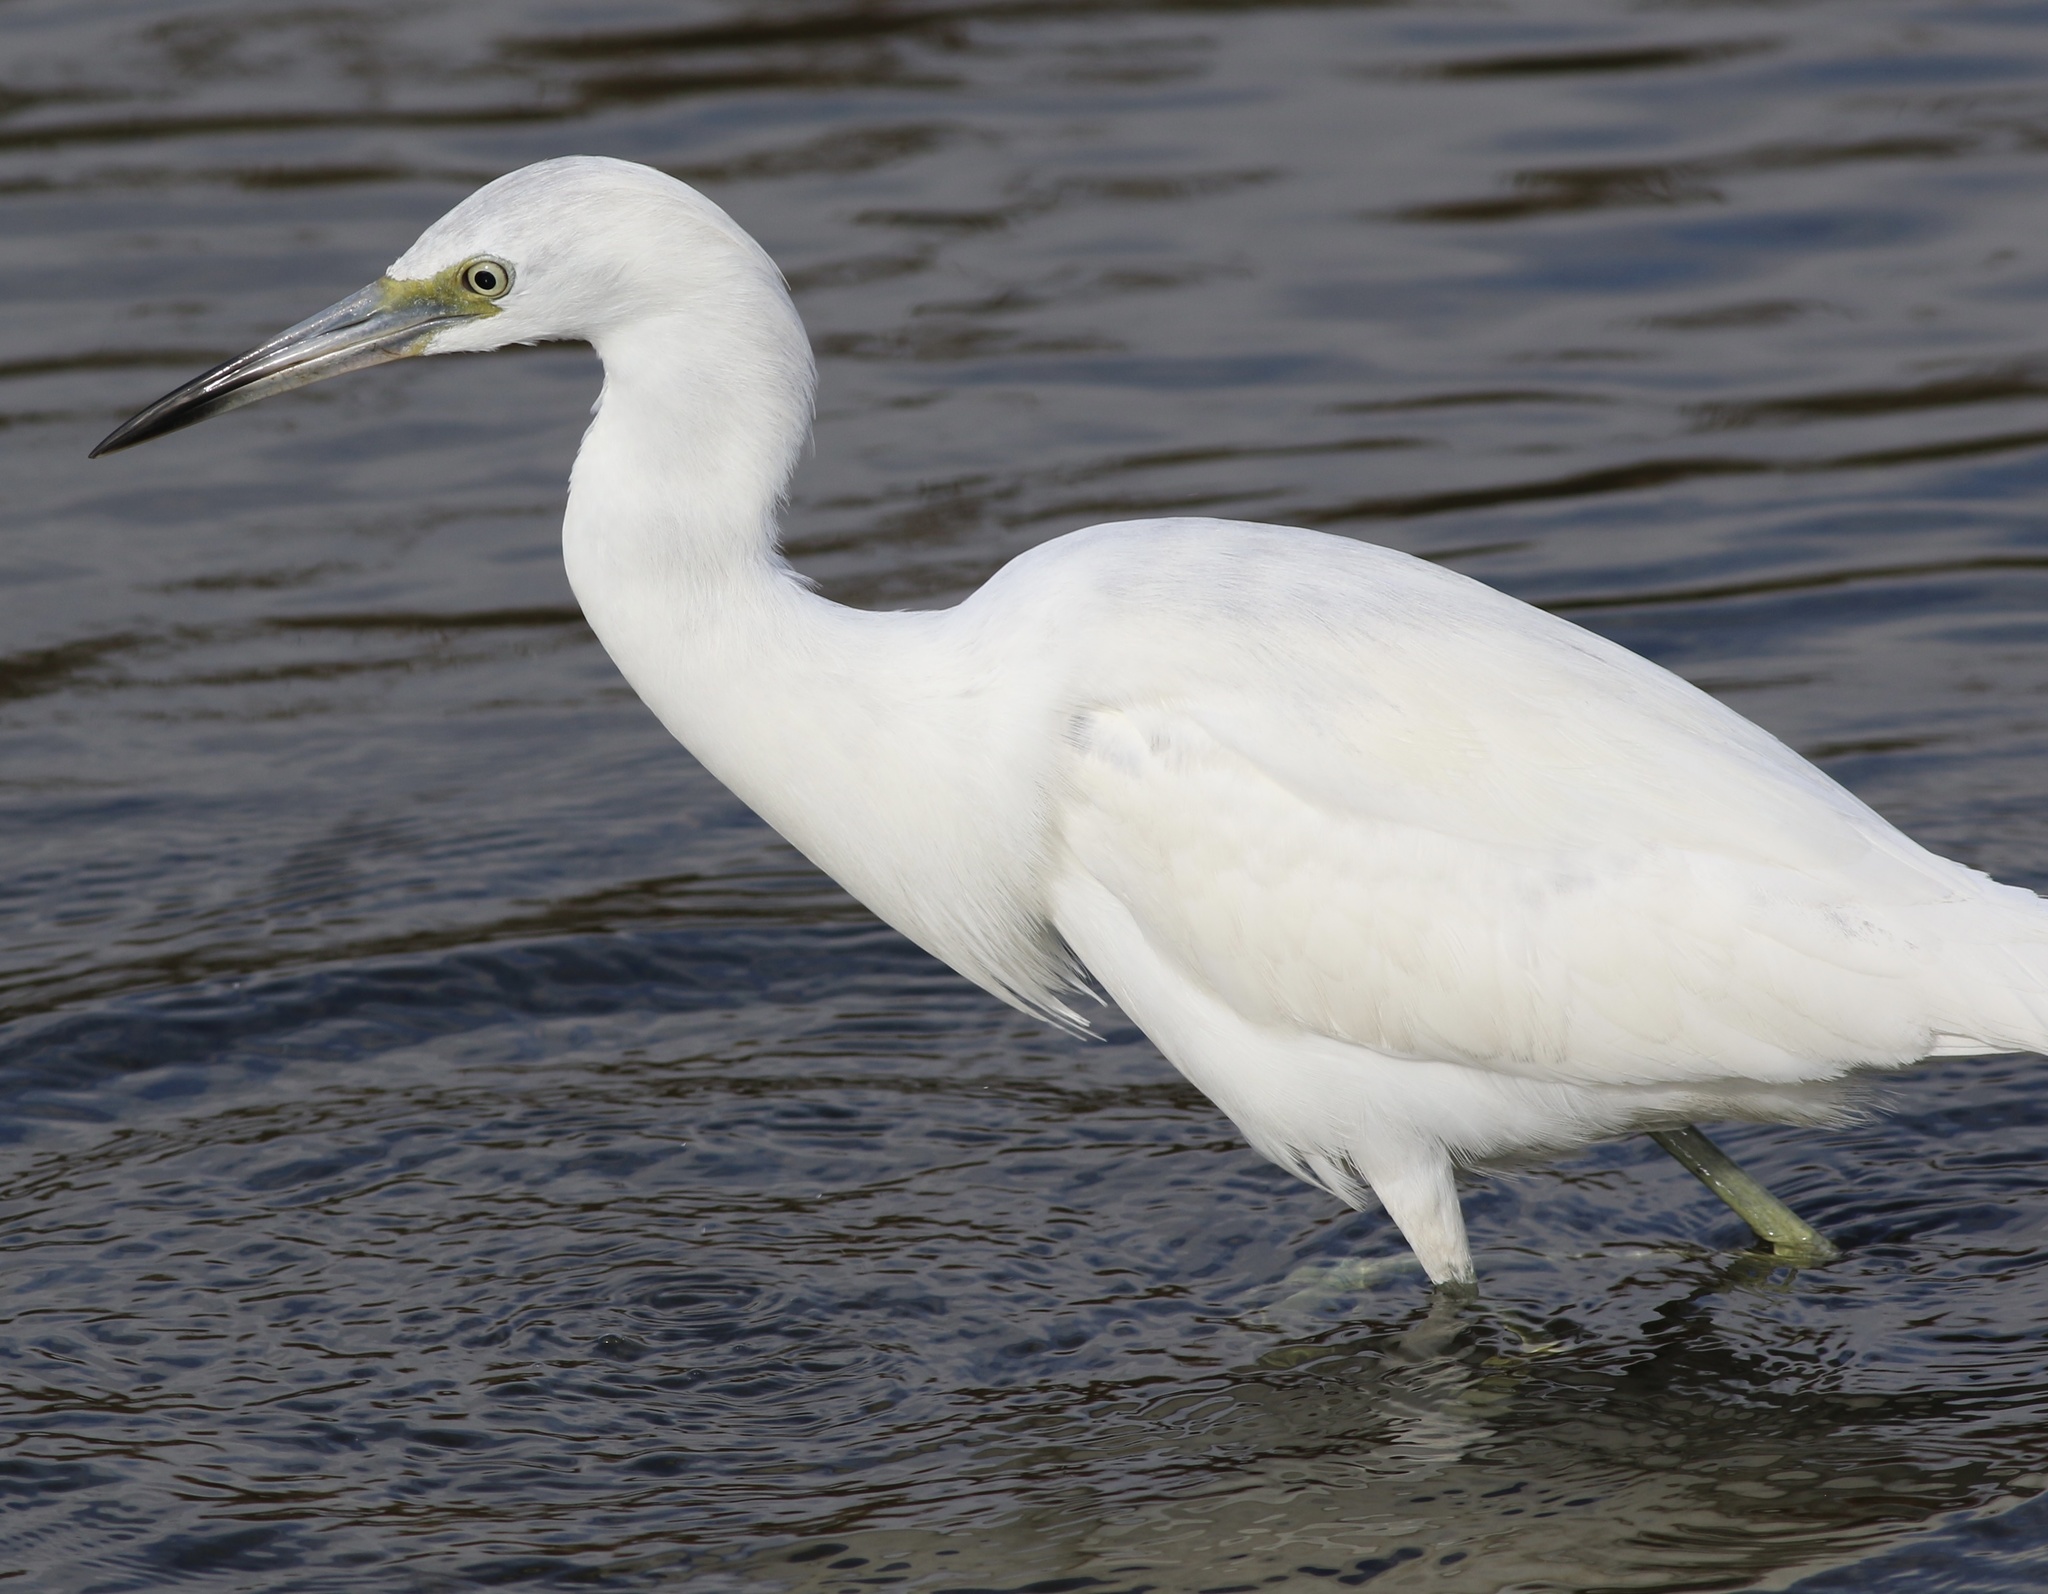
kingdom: Animalia
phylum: Chordata
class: Aves
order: Pelecaniformes
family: Ardeidae
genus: Egretta
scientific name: Egretta caerulea
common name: Little blue heron
